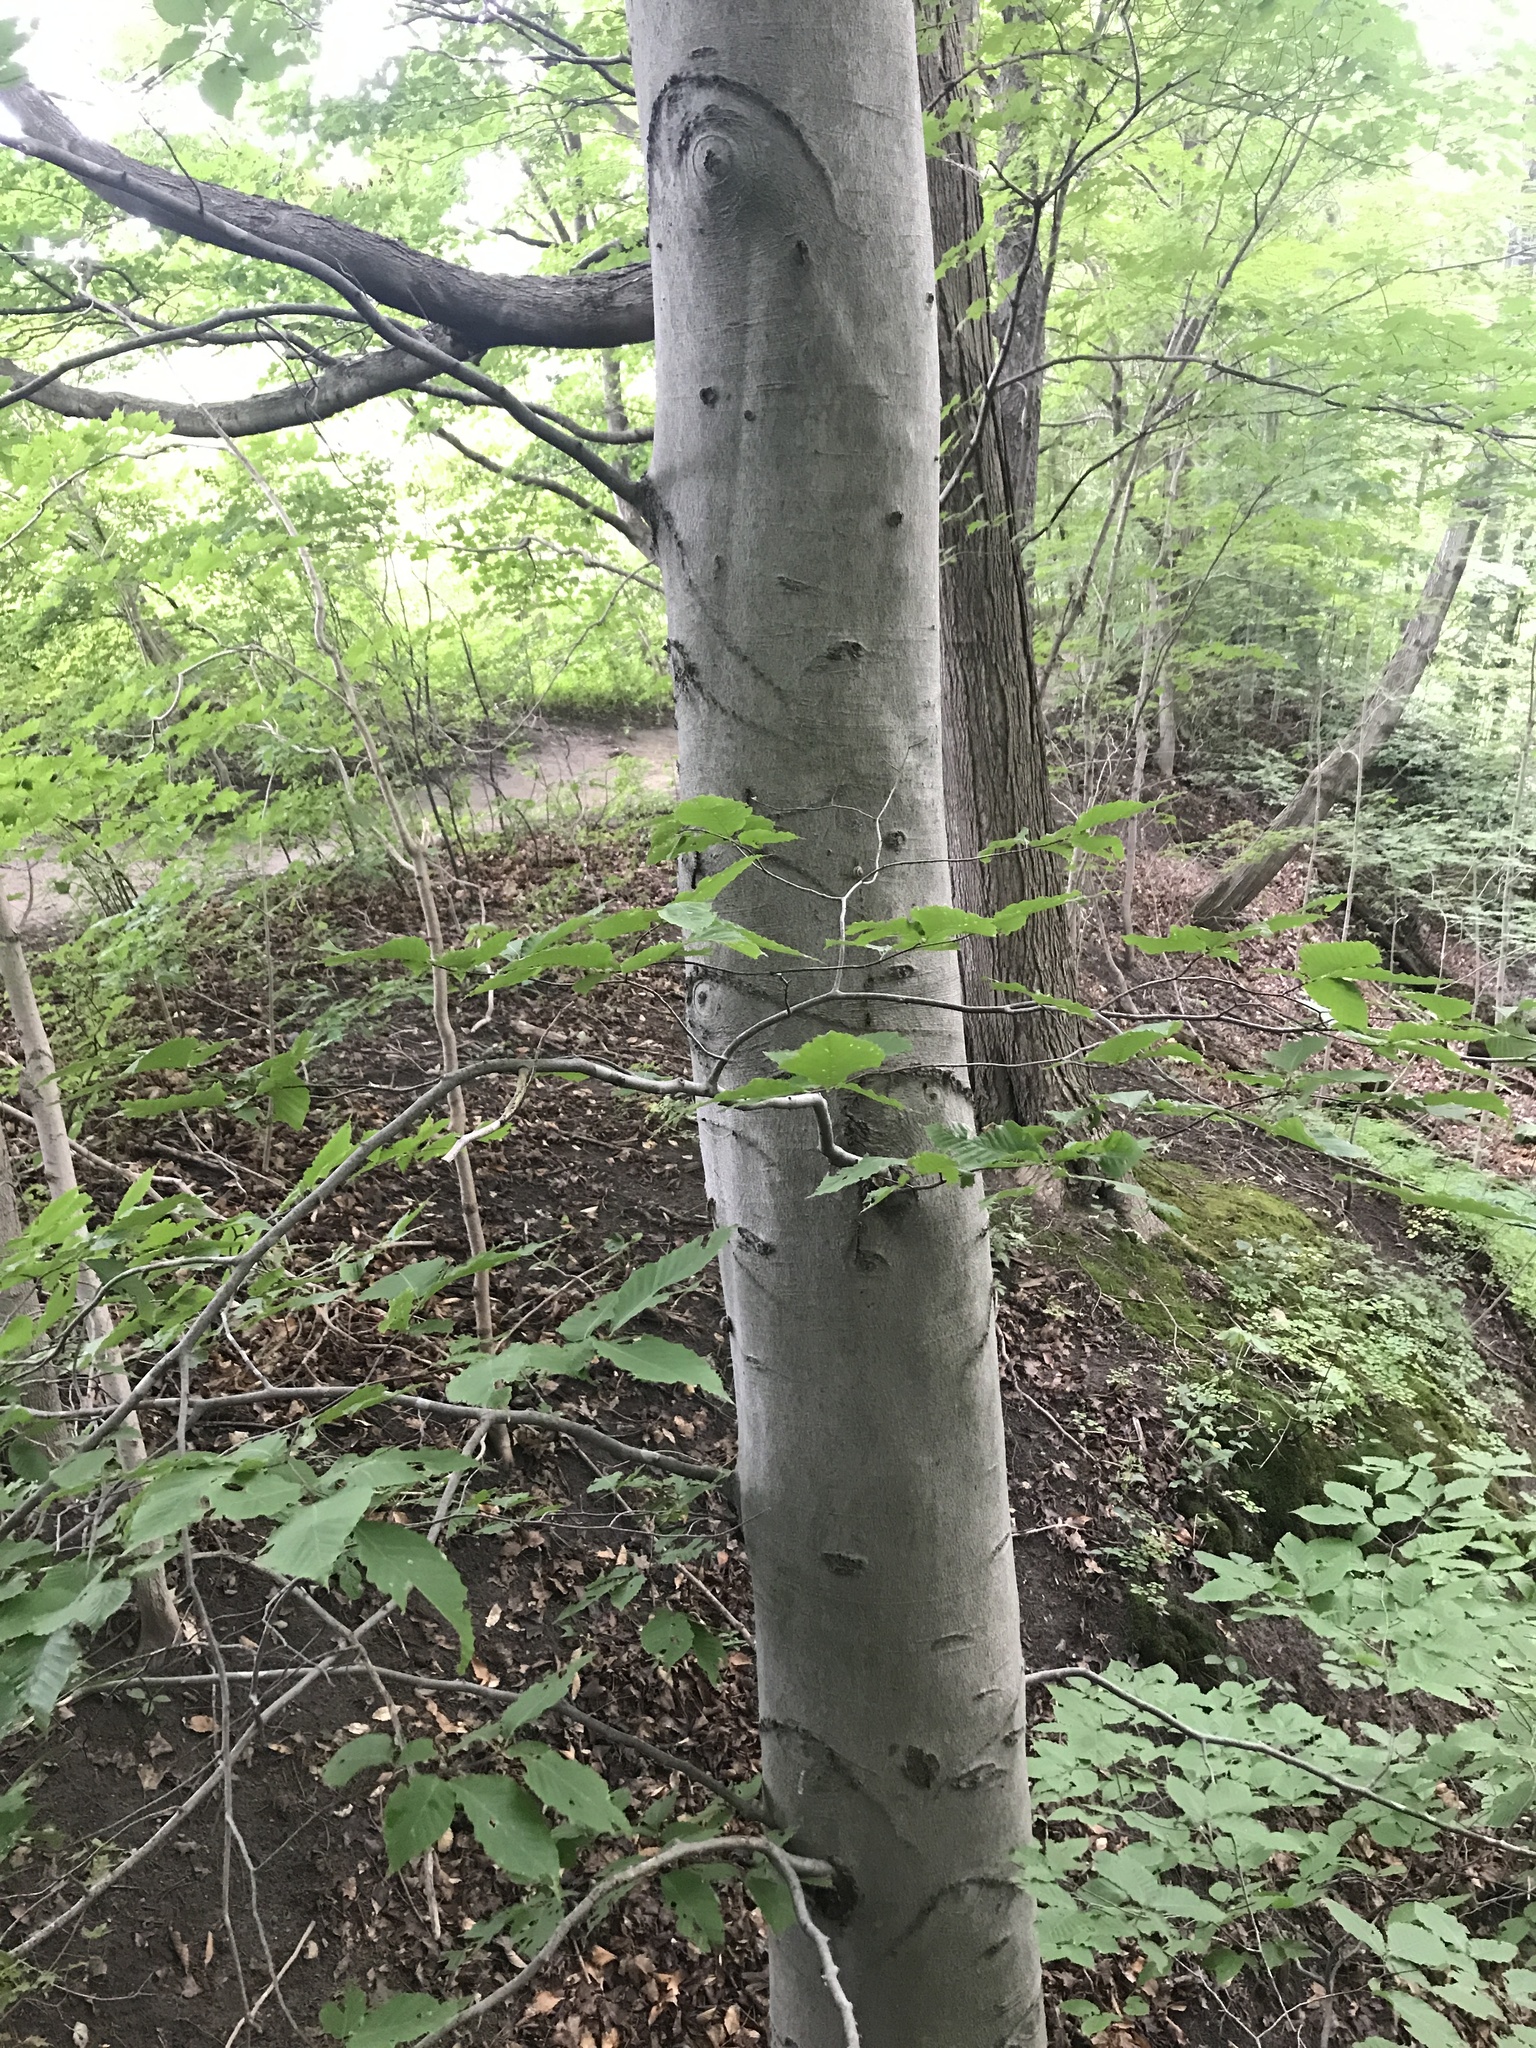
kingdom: Plantae
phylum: Tracheophyta
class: Magnoliopsida
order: Fagales
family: Fagaceae
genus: Fagus
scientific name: Fagus grandifolia
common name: American beech
